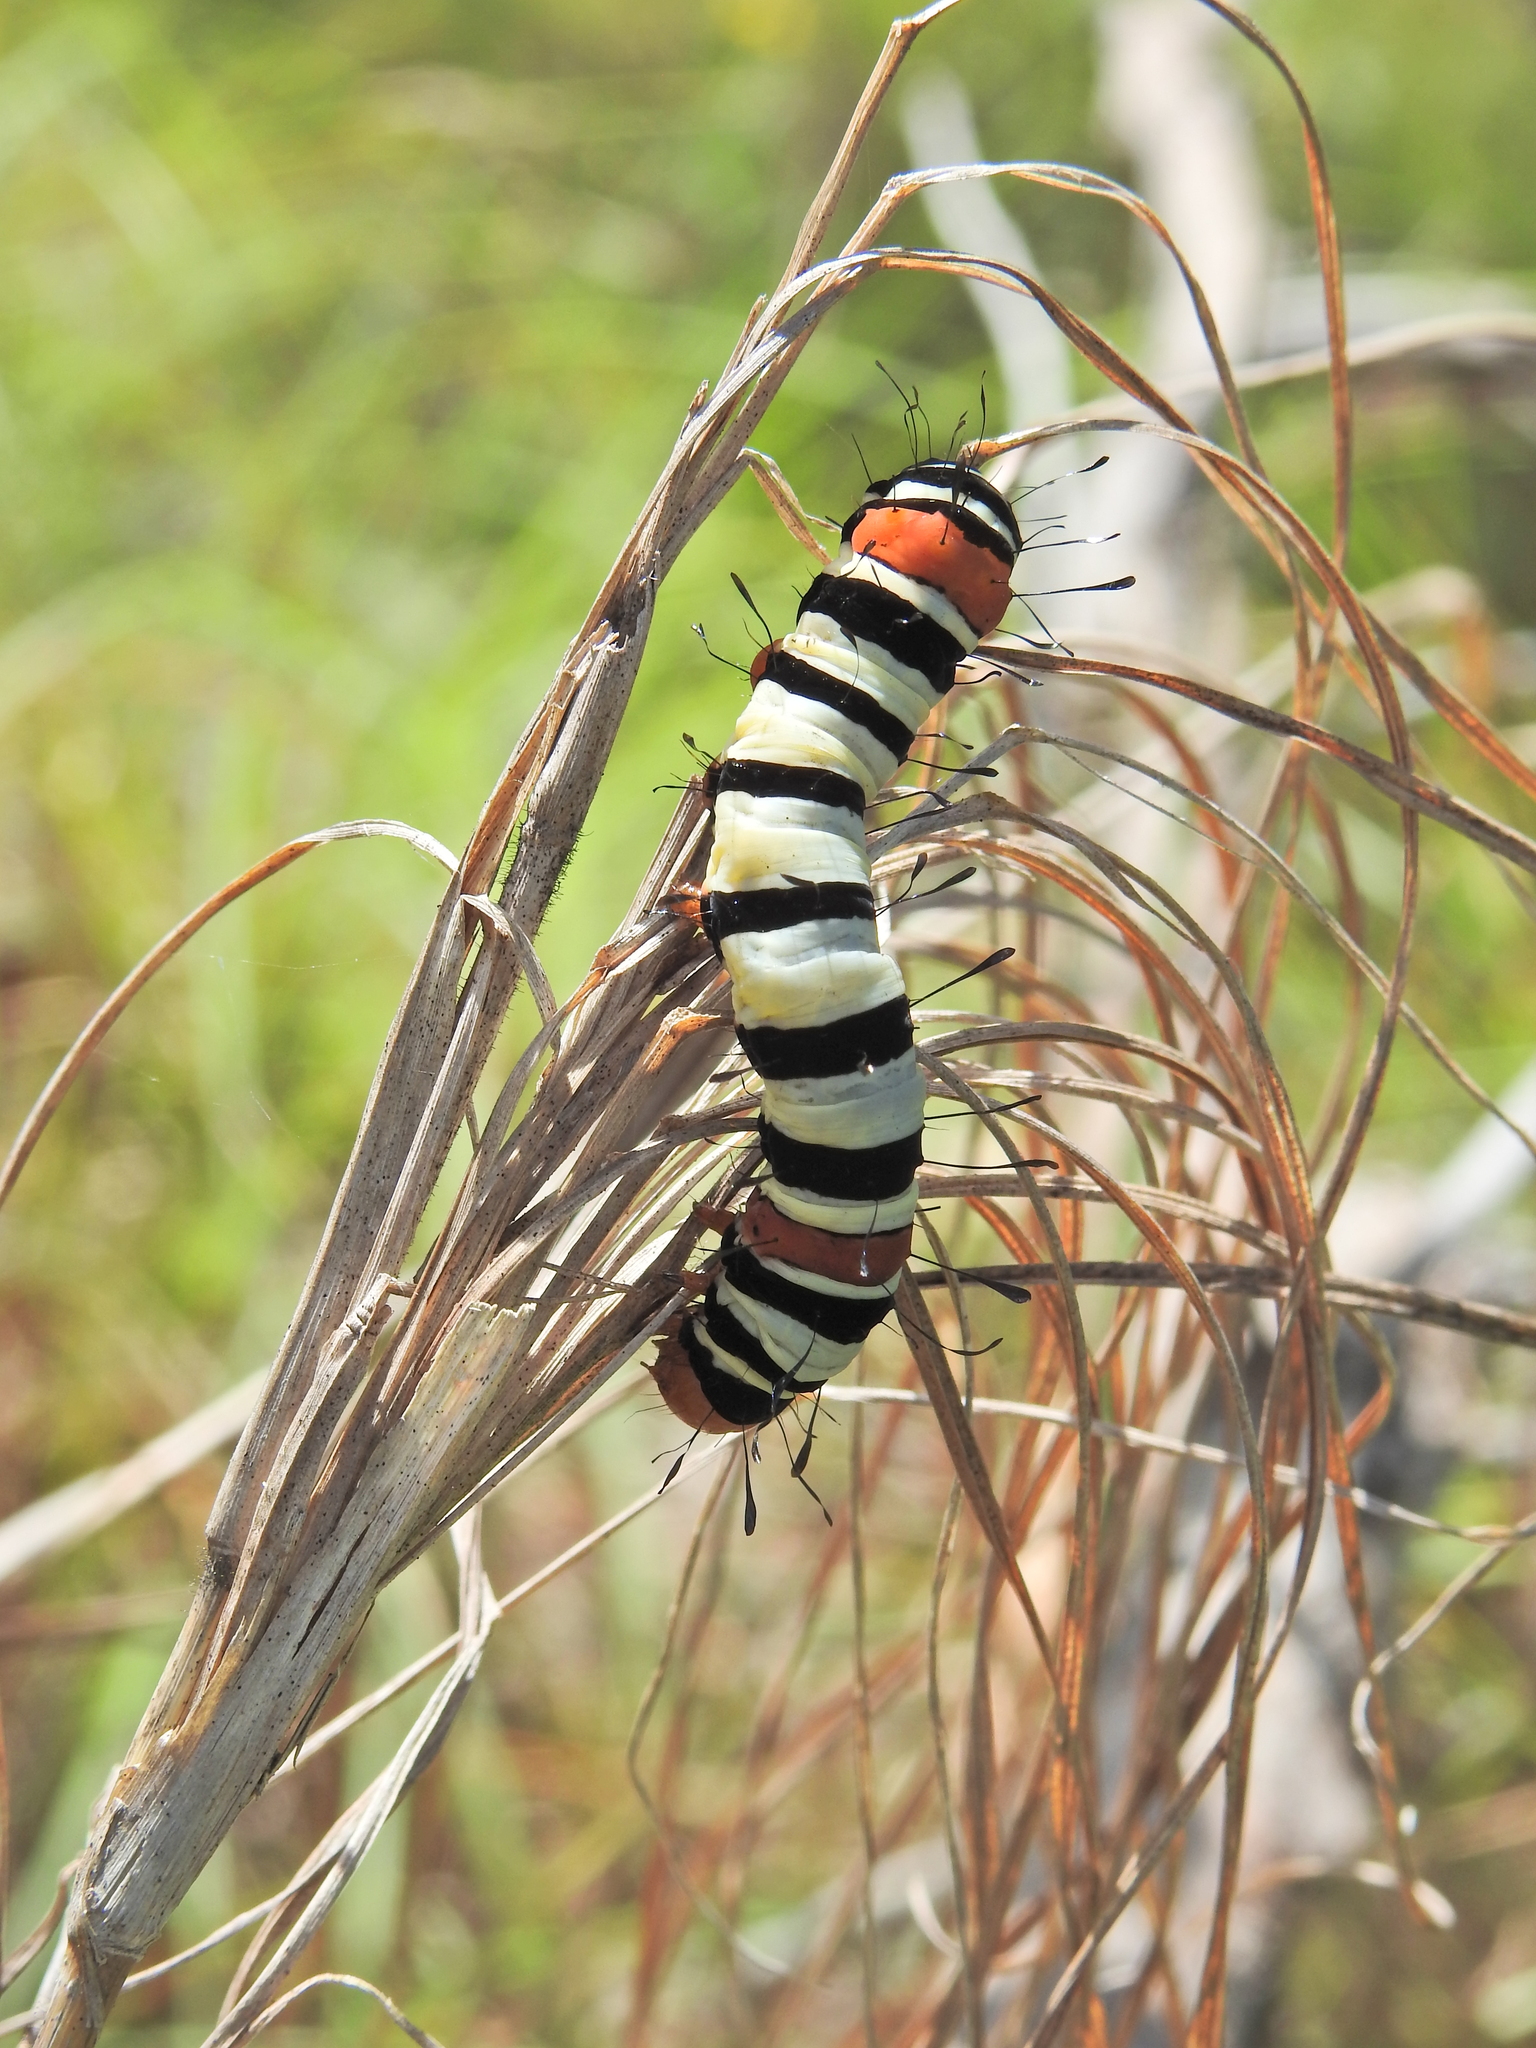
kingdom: Animalia
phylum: Arthropoda
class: Insecta
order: Lepidoptera
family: Noctuidae
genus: Agarista
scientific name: Agarista agricola
